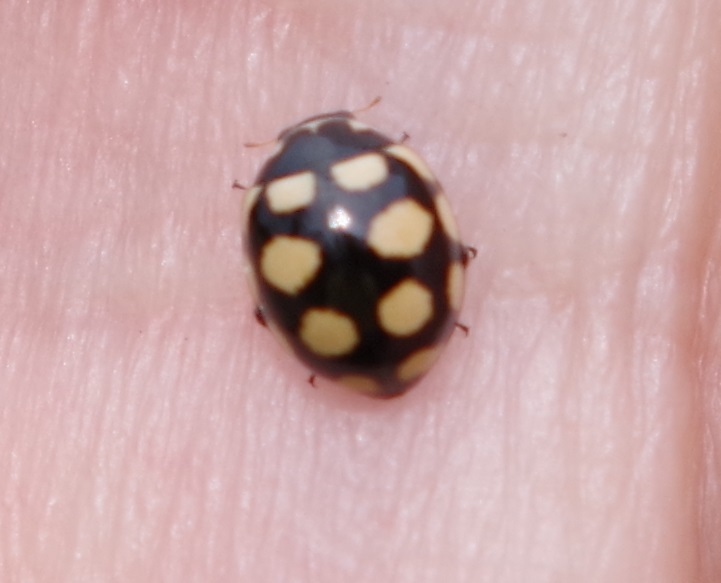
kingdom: Animalia
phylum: Arthropoda
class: Insecta
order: Coleoptera
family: Coccinellidae
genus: Coccinula
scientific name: Coccinula quatuordecimpustulata
